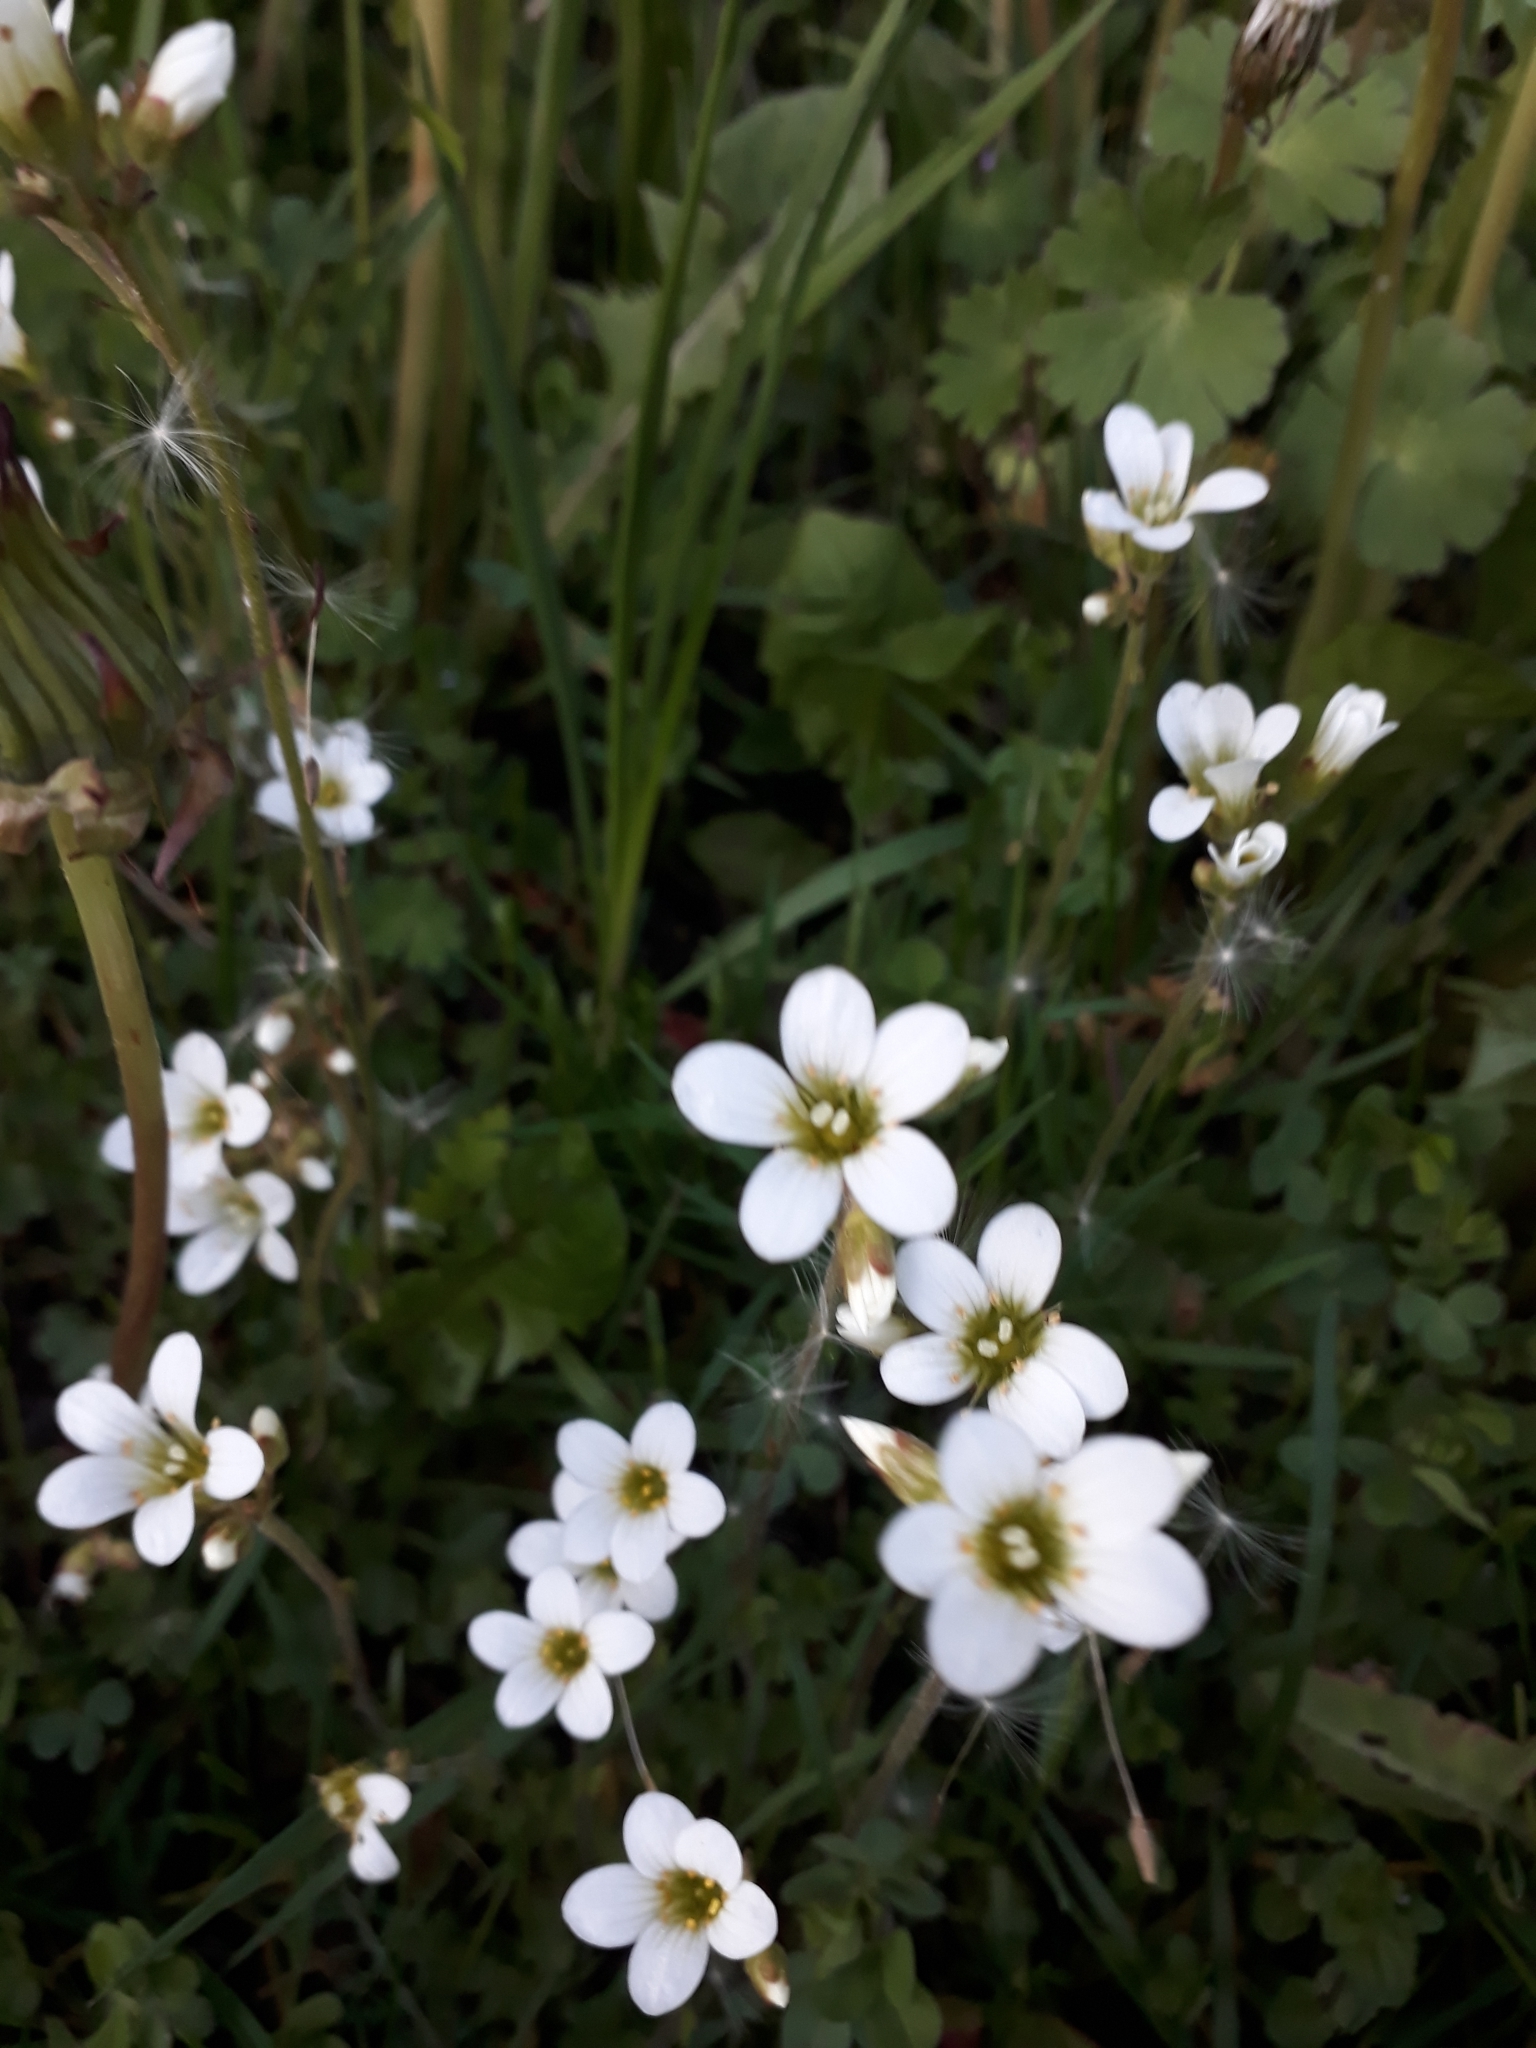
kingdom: Plantae
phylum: Tracheophyta
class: Magnoliopsida
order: Saxifragales
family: Saxifragaceae
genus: Saxifraga
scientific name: Saxifraga granulata
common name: Meadow saxifrage
